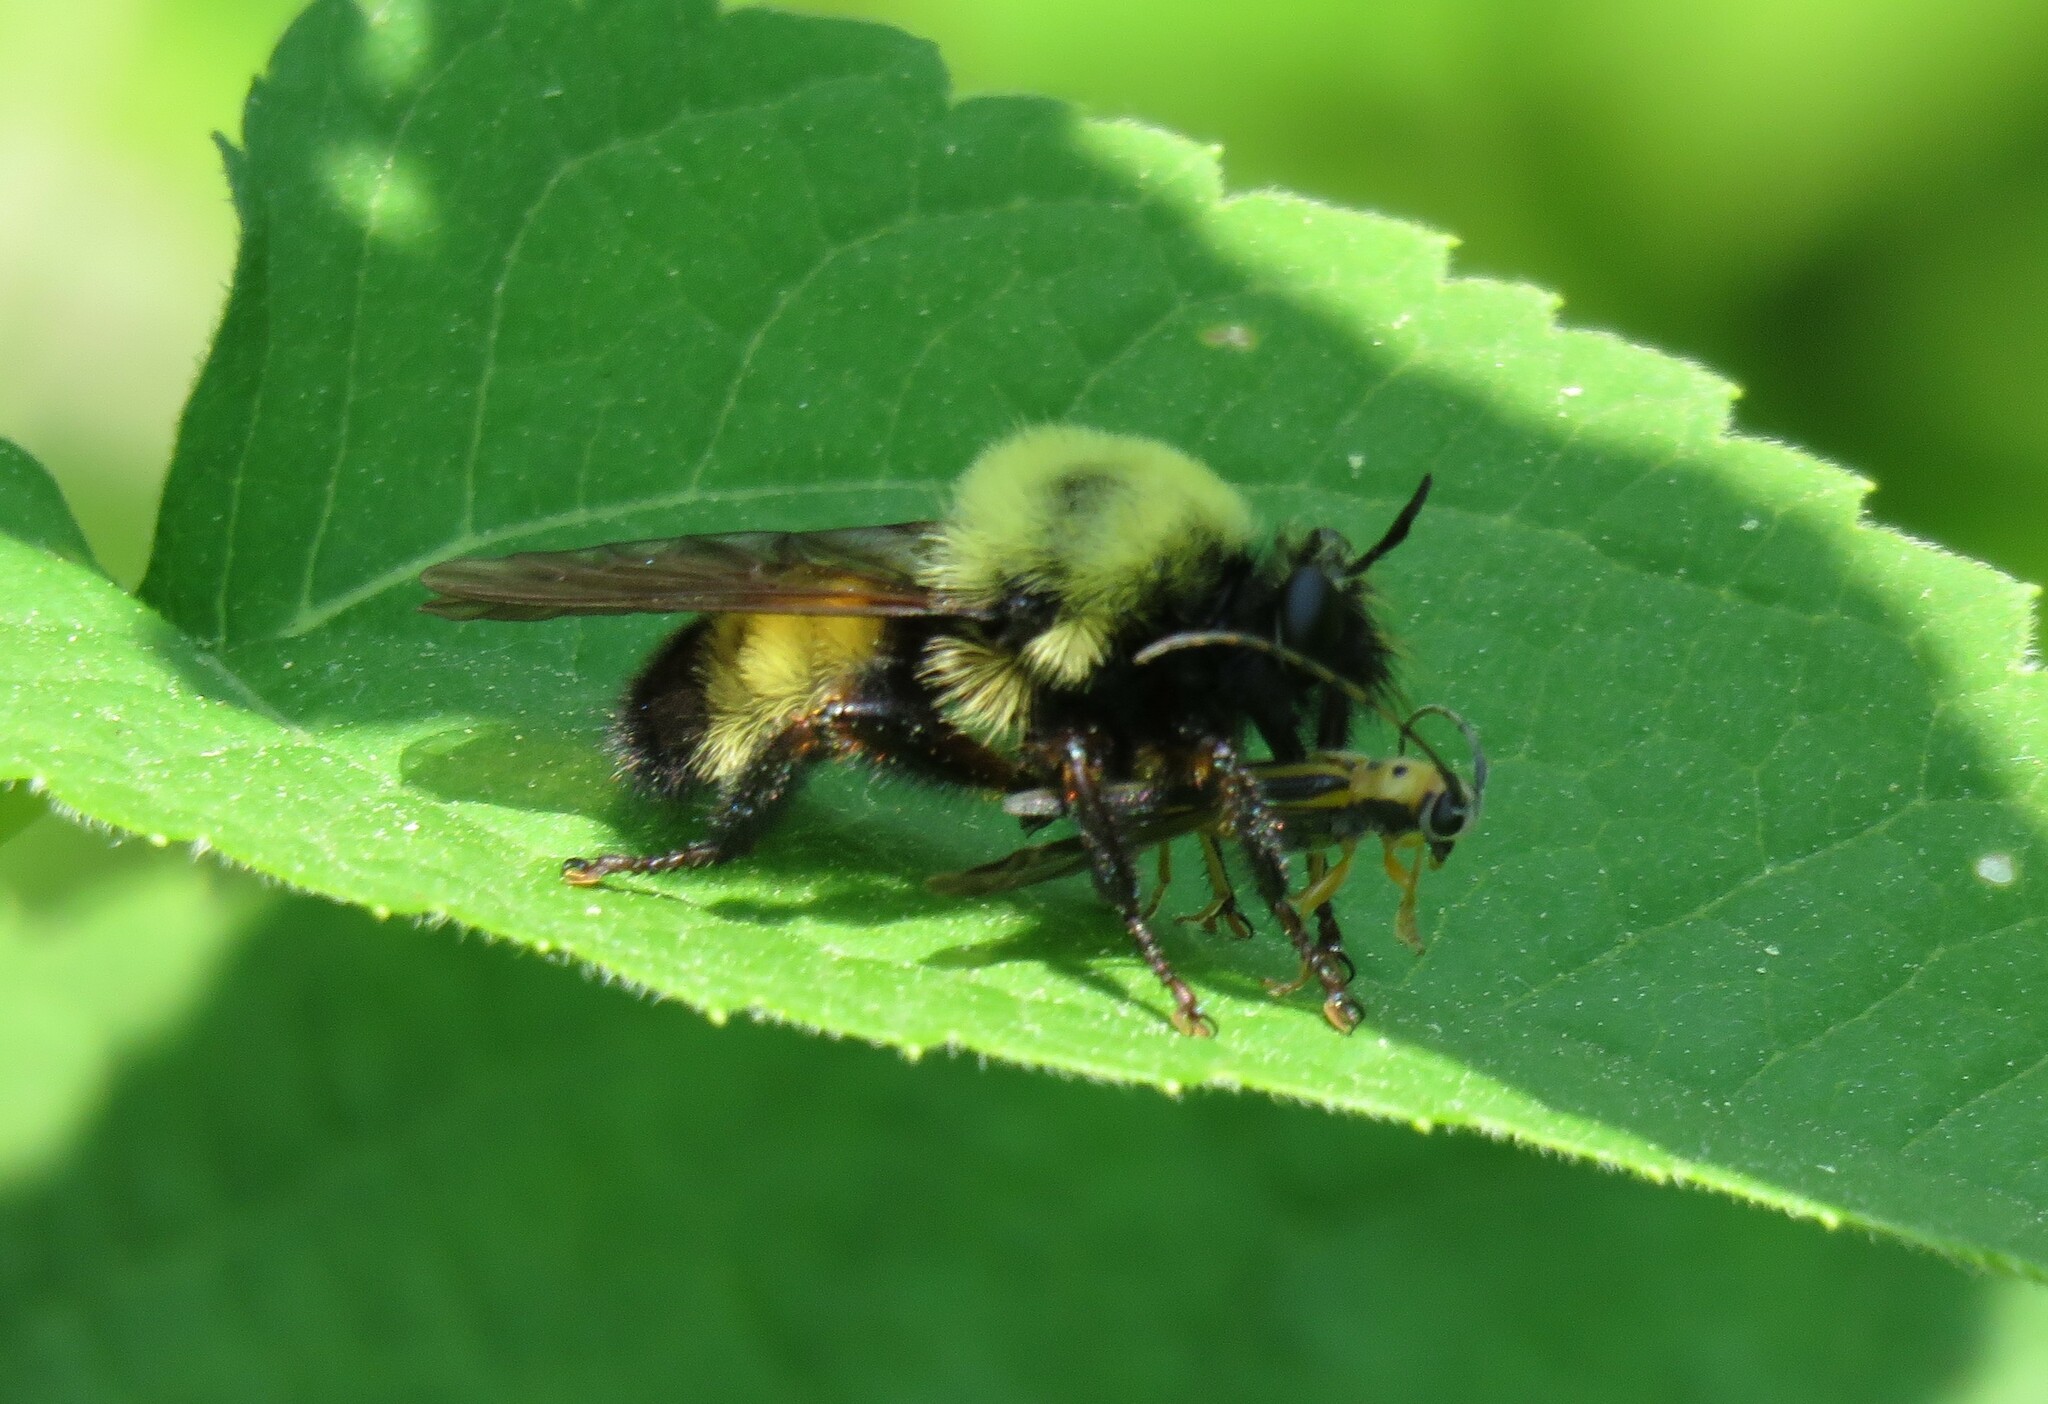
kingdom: Animalia
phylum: Arthropoda
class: Insecta
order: Diptera
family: Asilidae
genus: Laphria
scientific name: Laphria thoracica
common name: Bumble bee mimic robber fly
